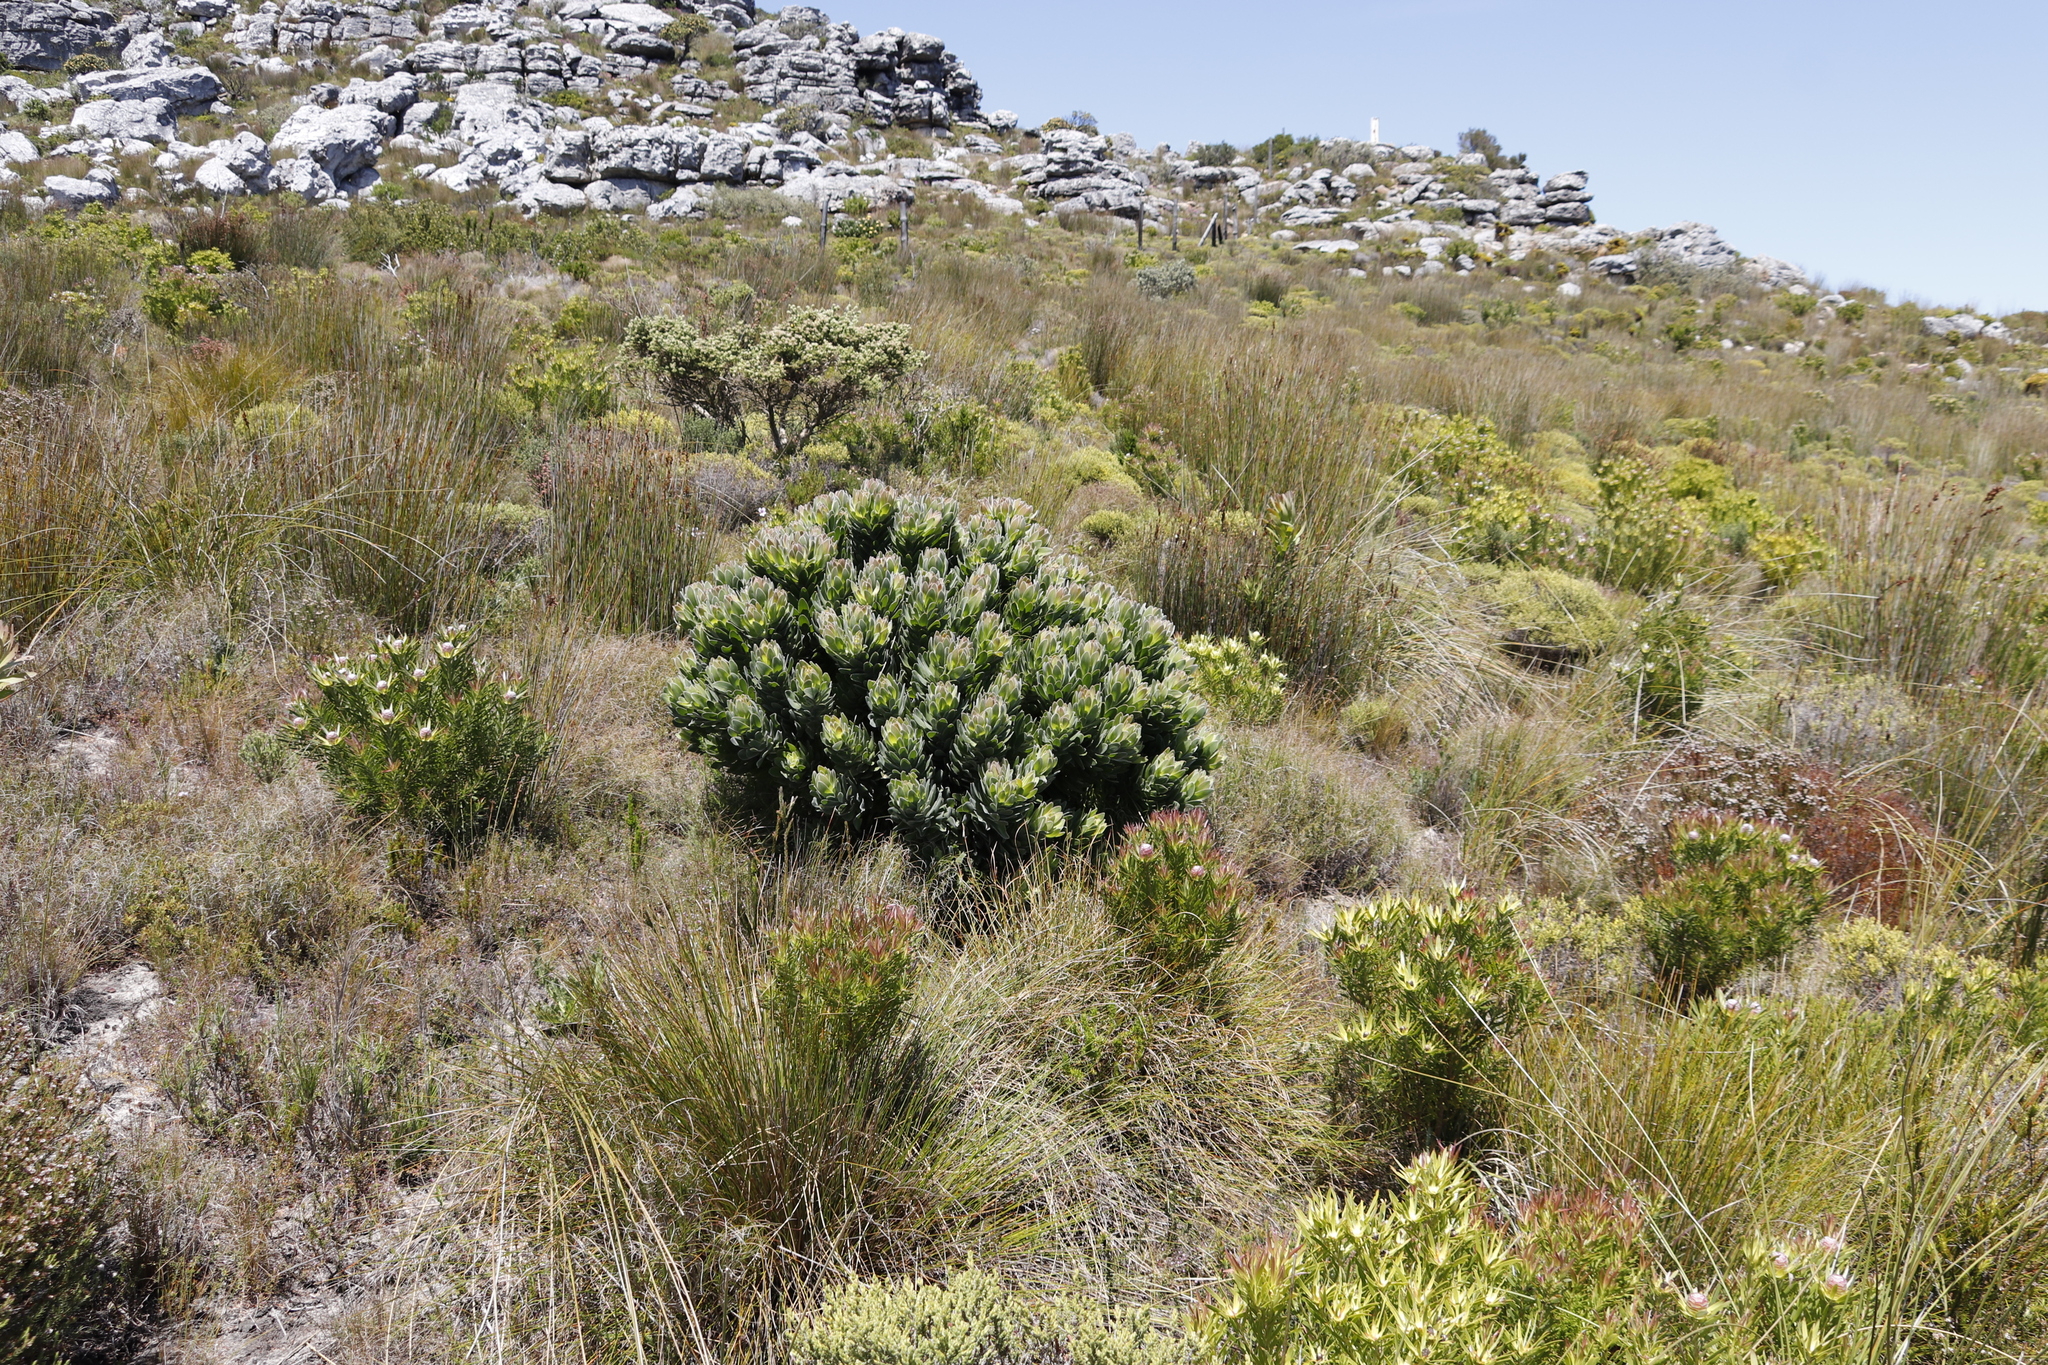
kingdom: Plantae
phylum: Tracheophyta
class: Magnoliopsida
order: Proteales
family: Proteaceae
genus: Mimetes
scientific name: Mimetes fimbriifolius
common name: Fringed bottlebrush
